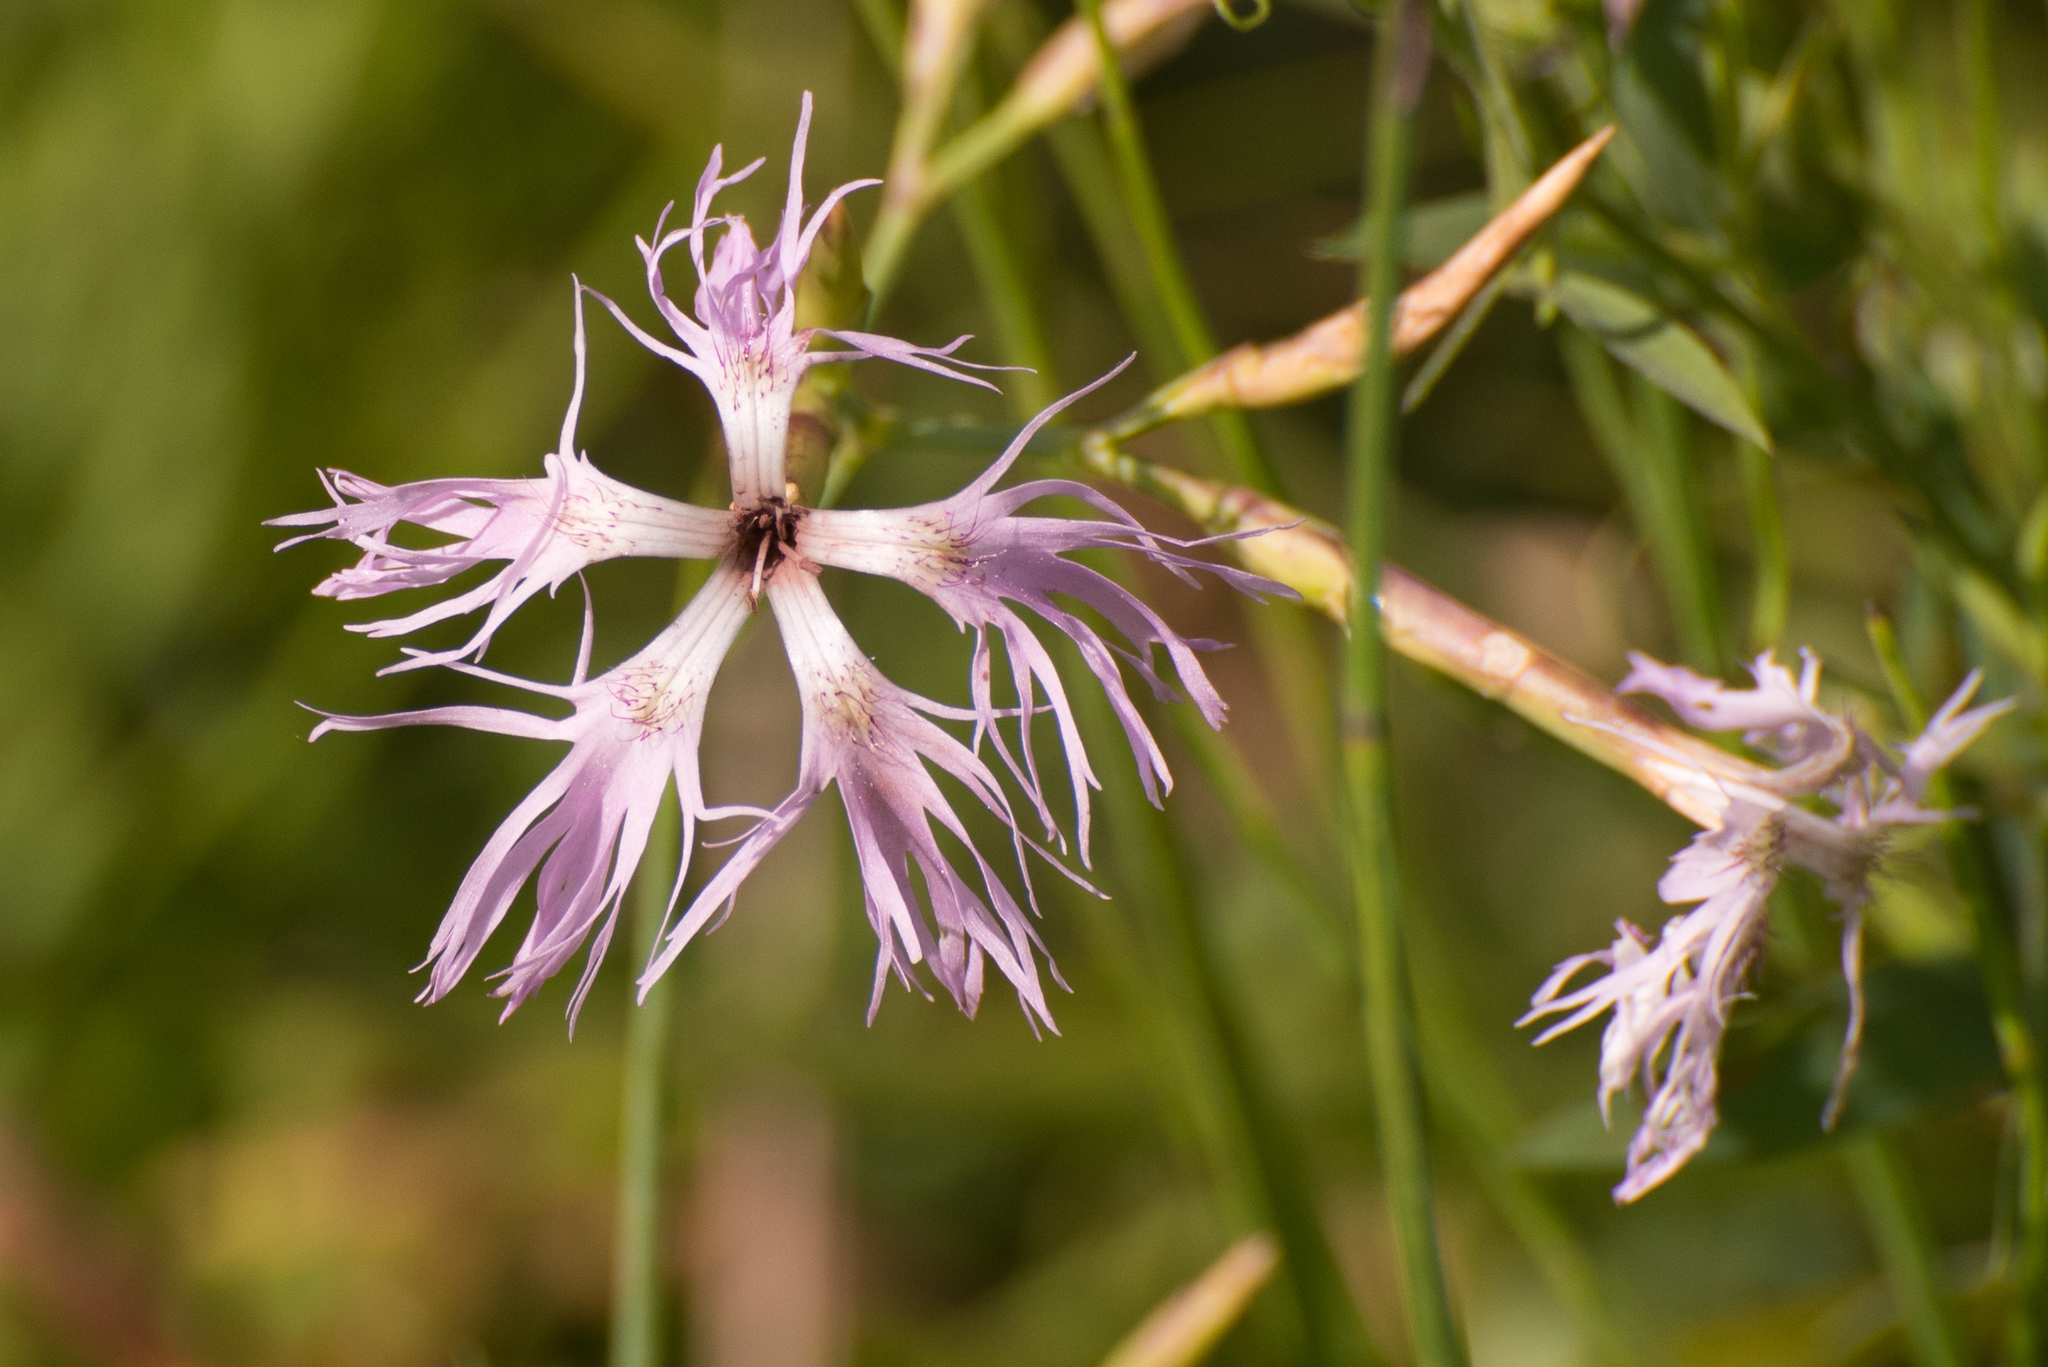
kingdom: Plantae
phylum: Tracheophyta
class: Magnoliopsida
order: Caryophyllales
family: Caryophyllaceae
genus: Dianthus
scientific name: Dianthus superbus
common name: Fringed pink
